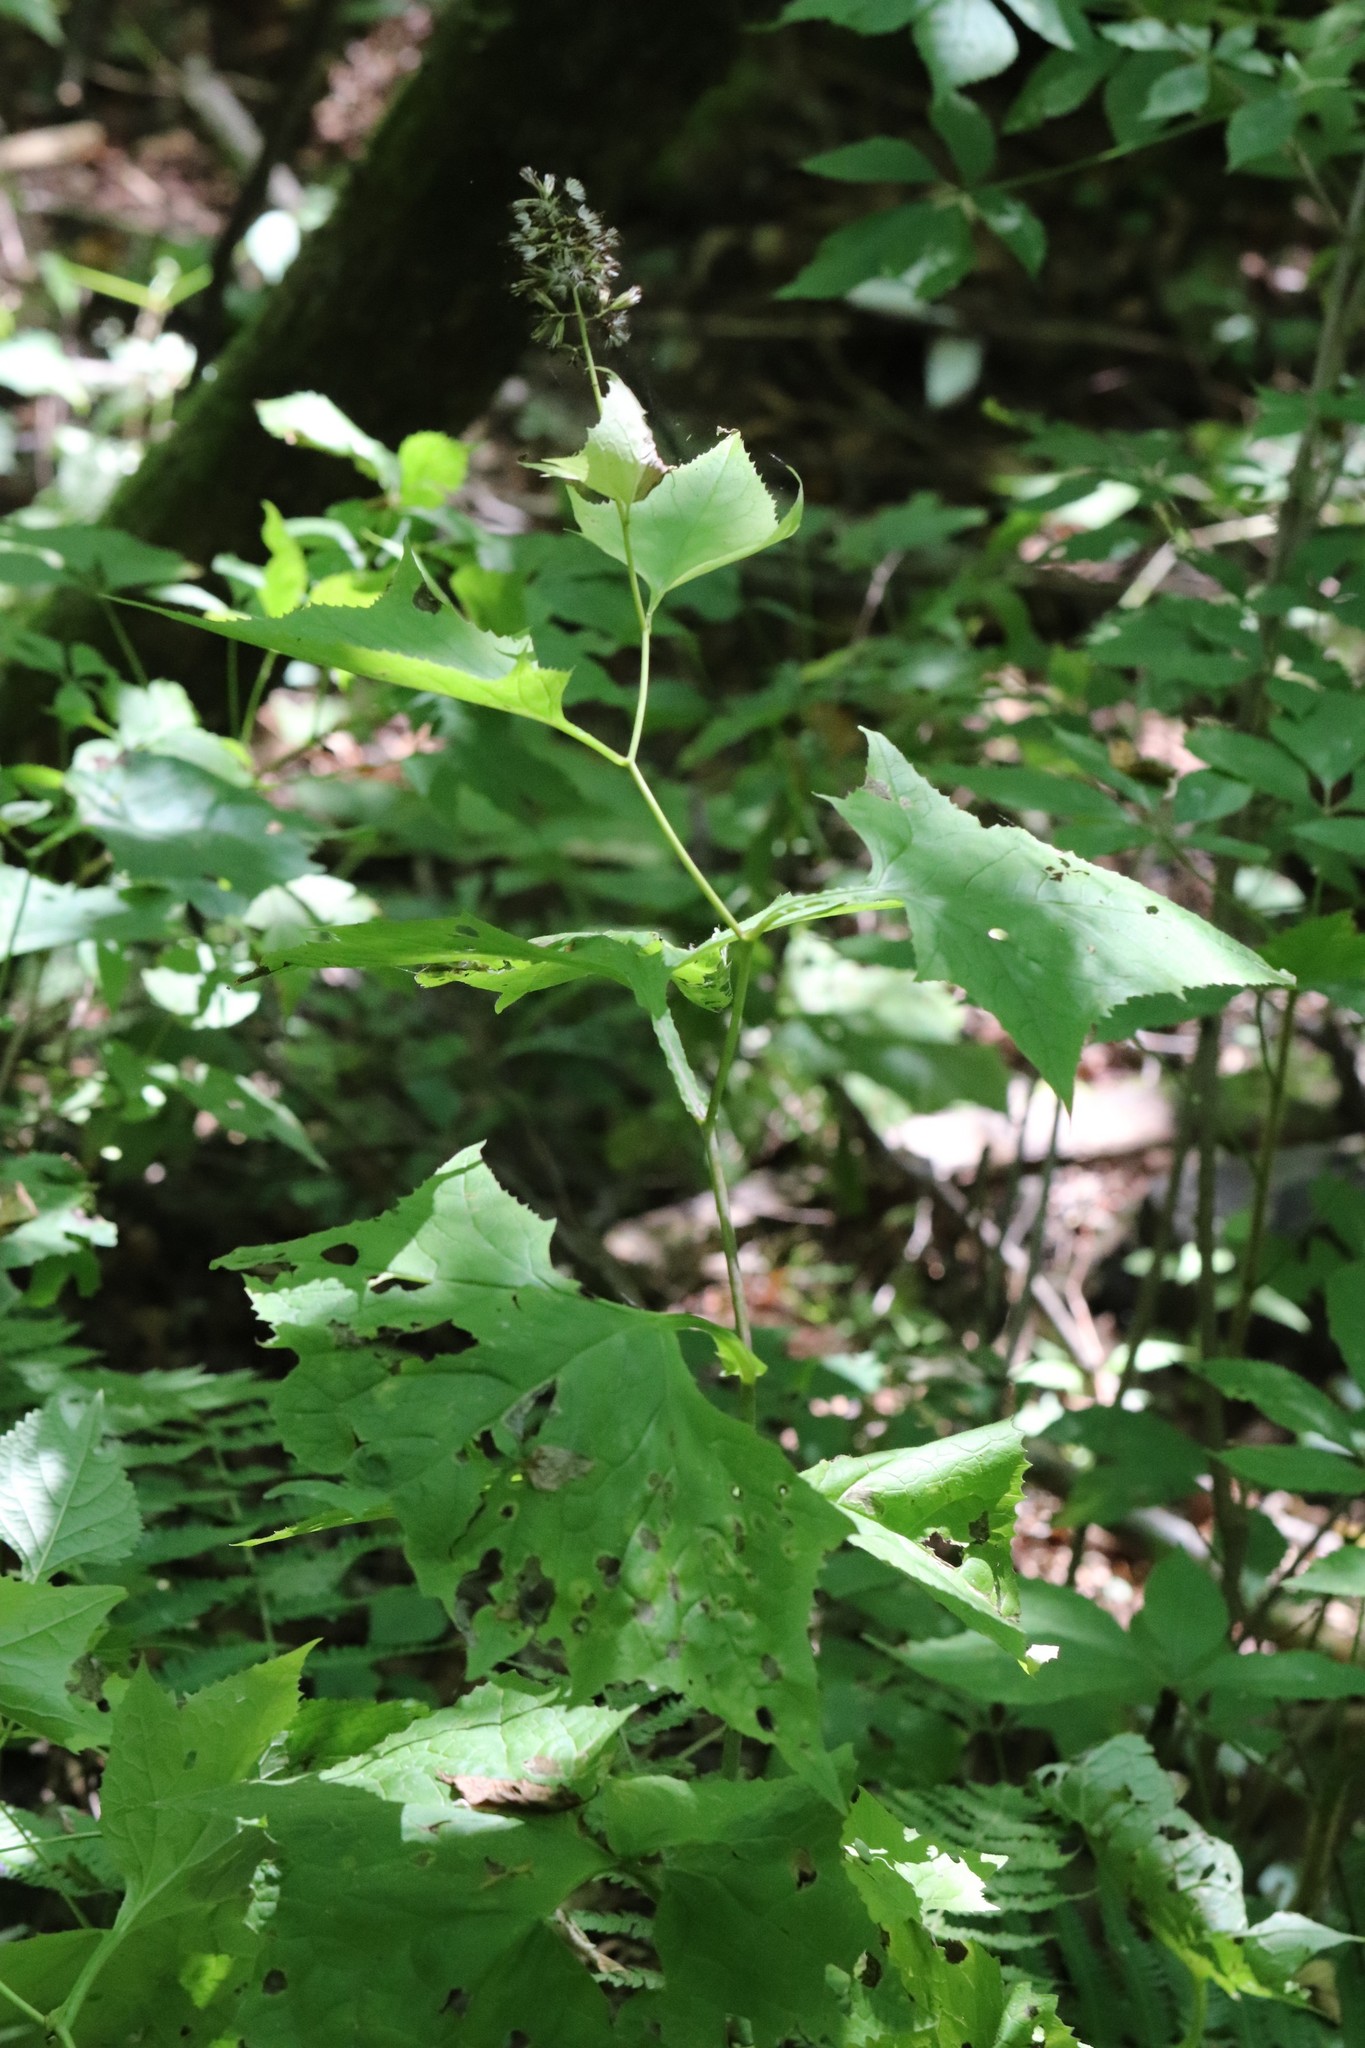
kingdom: Plantae
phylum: Tracheophyta
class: Magnoliopsida
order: Asterales
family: Asteraceae
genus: Parasenecio
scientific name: Parasenecio komarovianus
